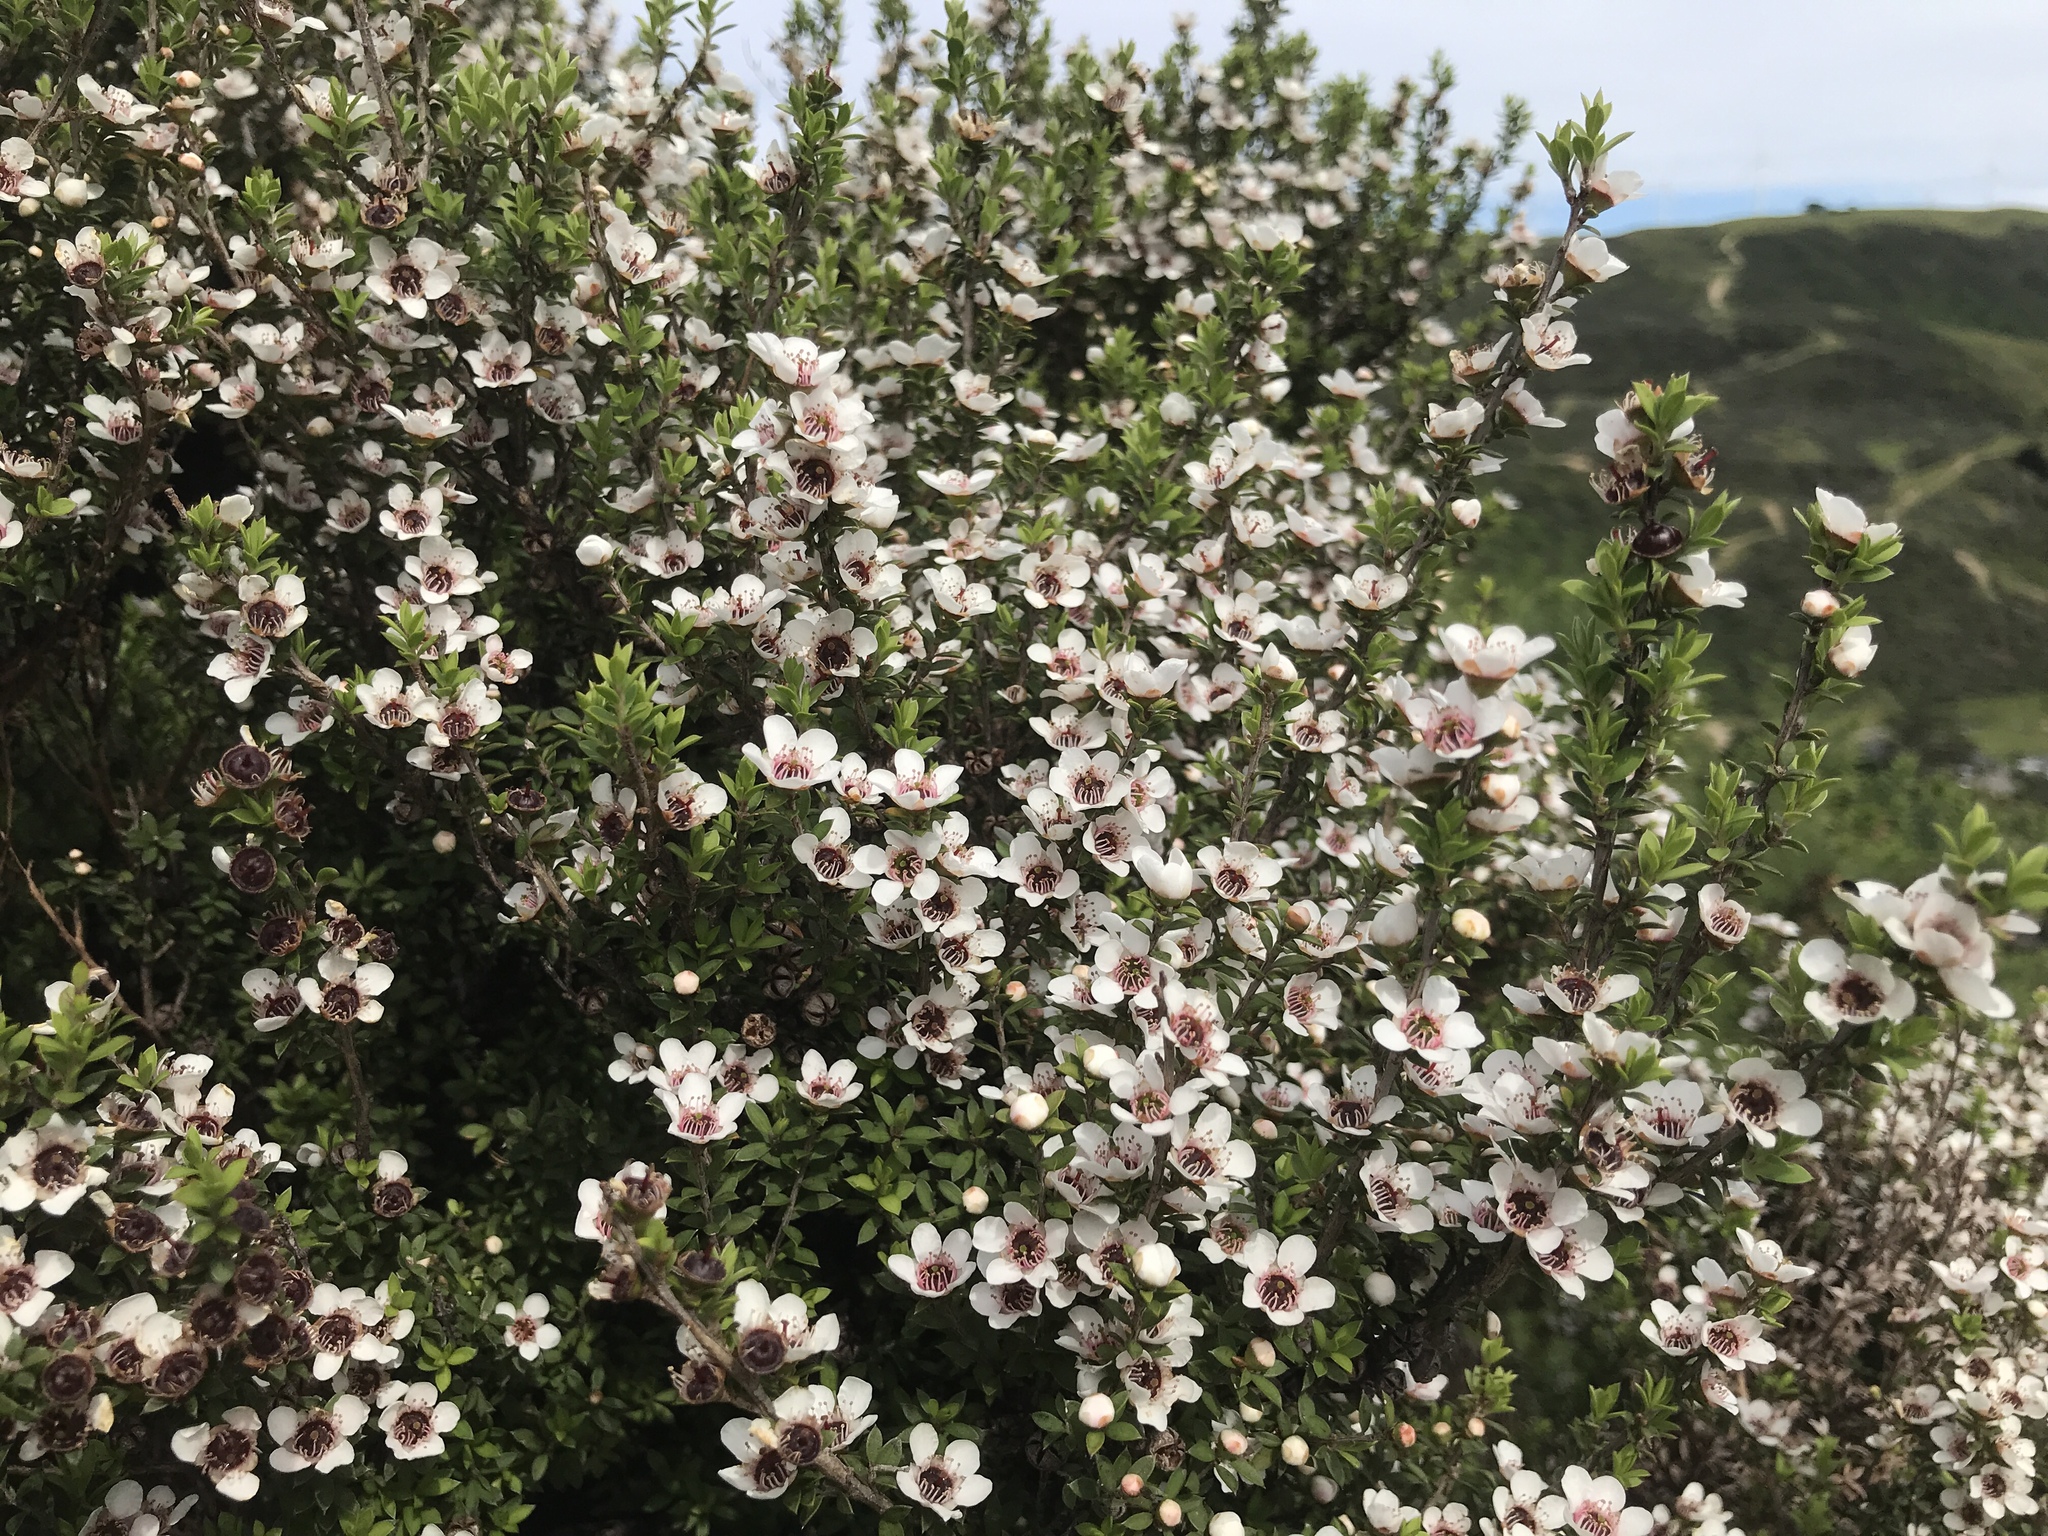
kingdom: Plantae
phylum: Tracheophyta
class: Magnoliopsida
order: Myrtales
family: Myrtaceae
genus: Leptospermum
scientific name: Leptospermum scoparium
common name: Broom tea-tree
